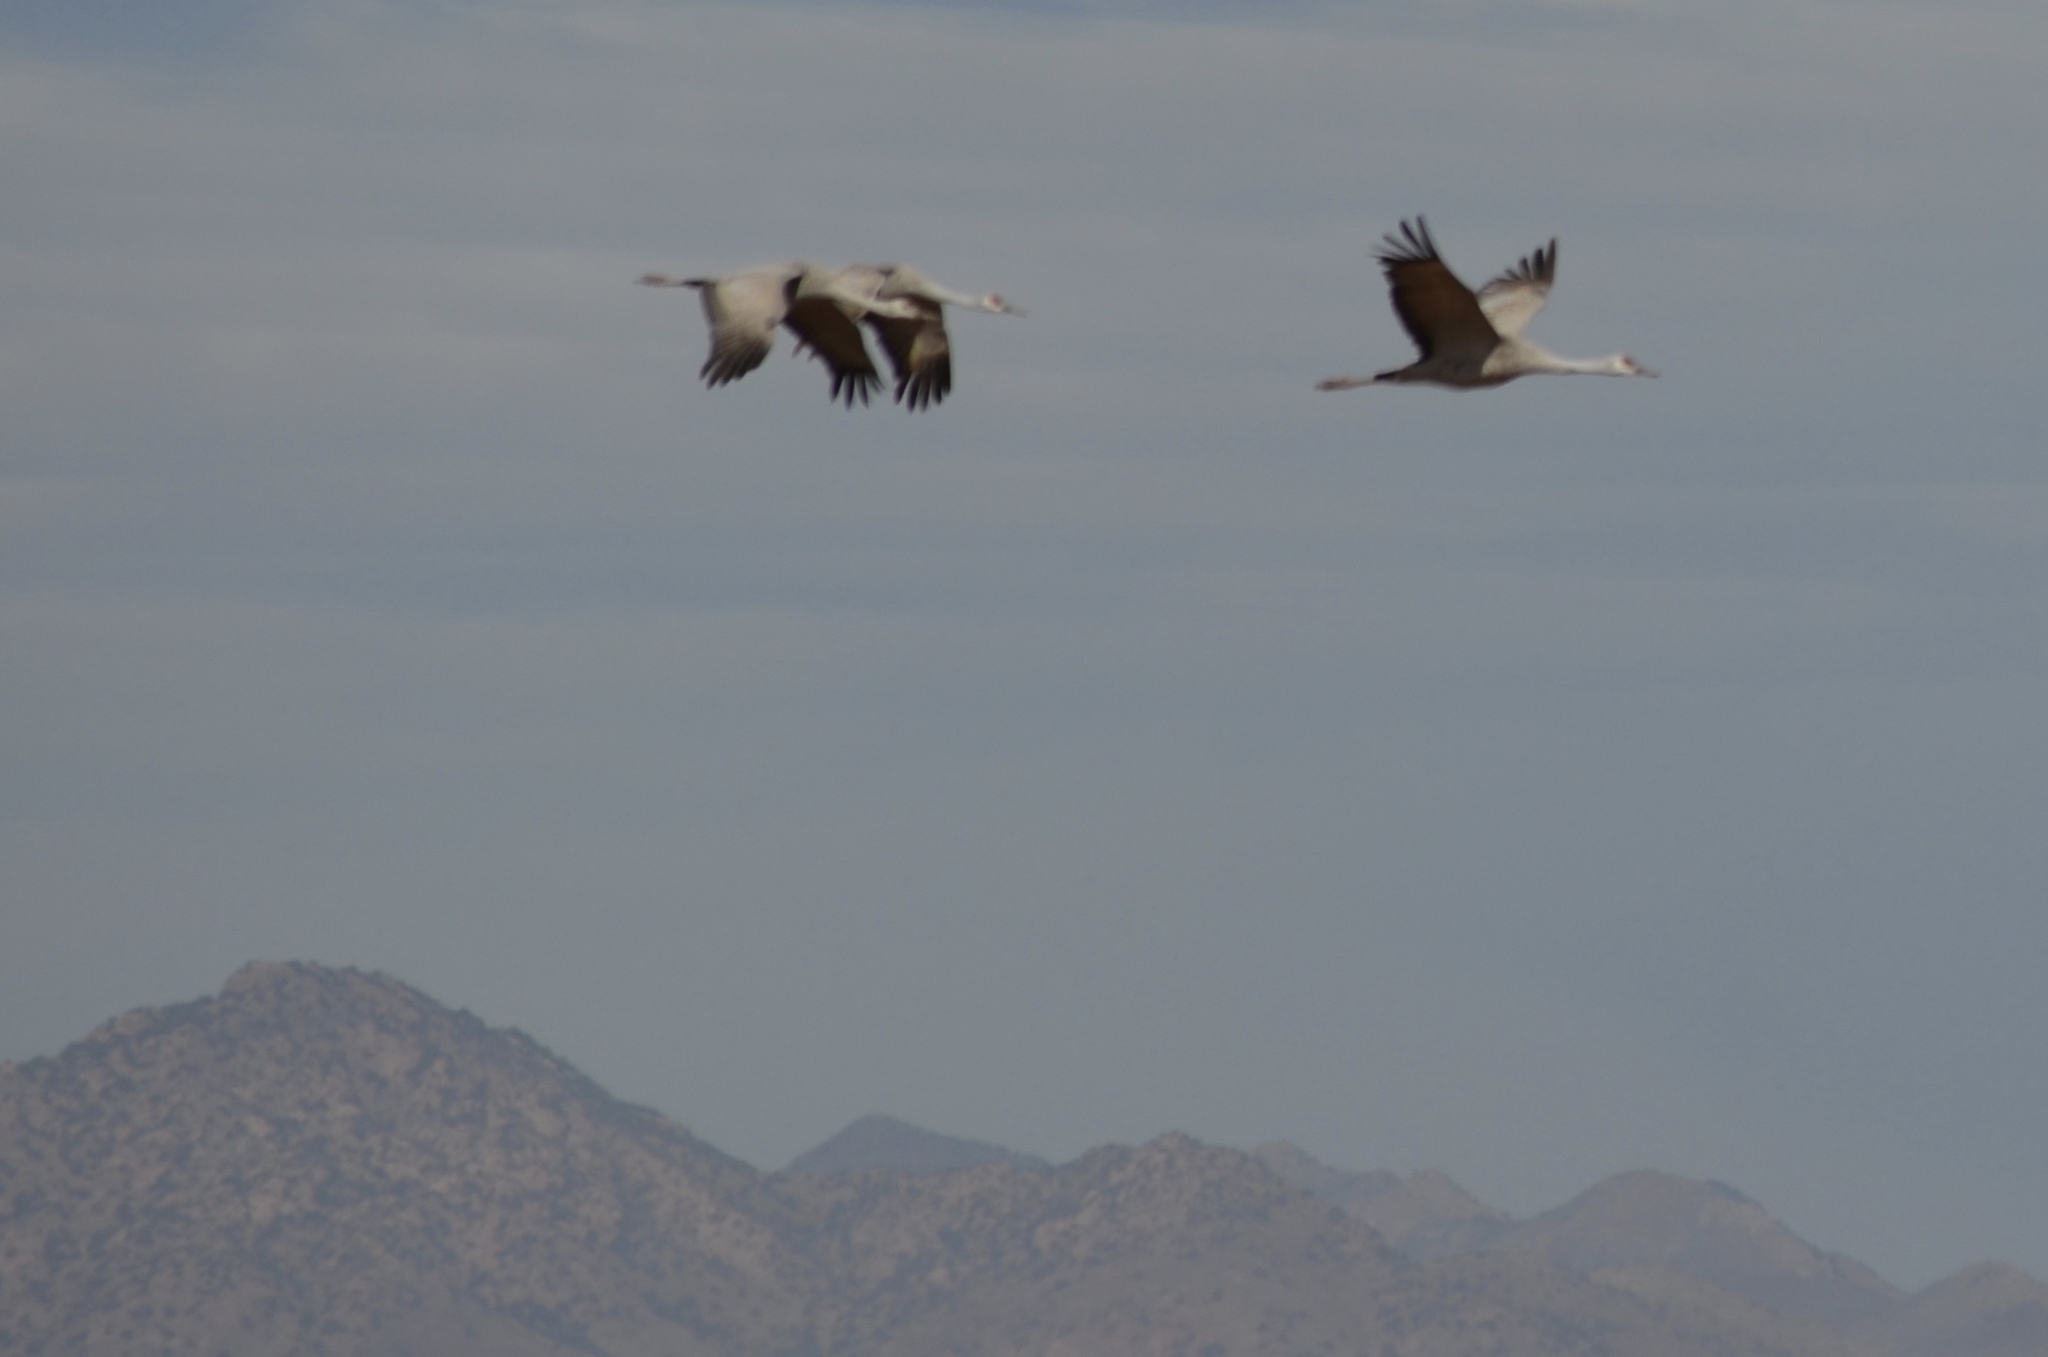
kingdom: Animalia
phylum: Chordata
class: Aves
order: Gruiformes
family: Gruidae
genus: Grus
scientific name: Grus canadensis
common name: Sandhill crane
